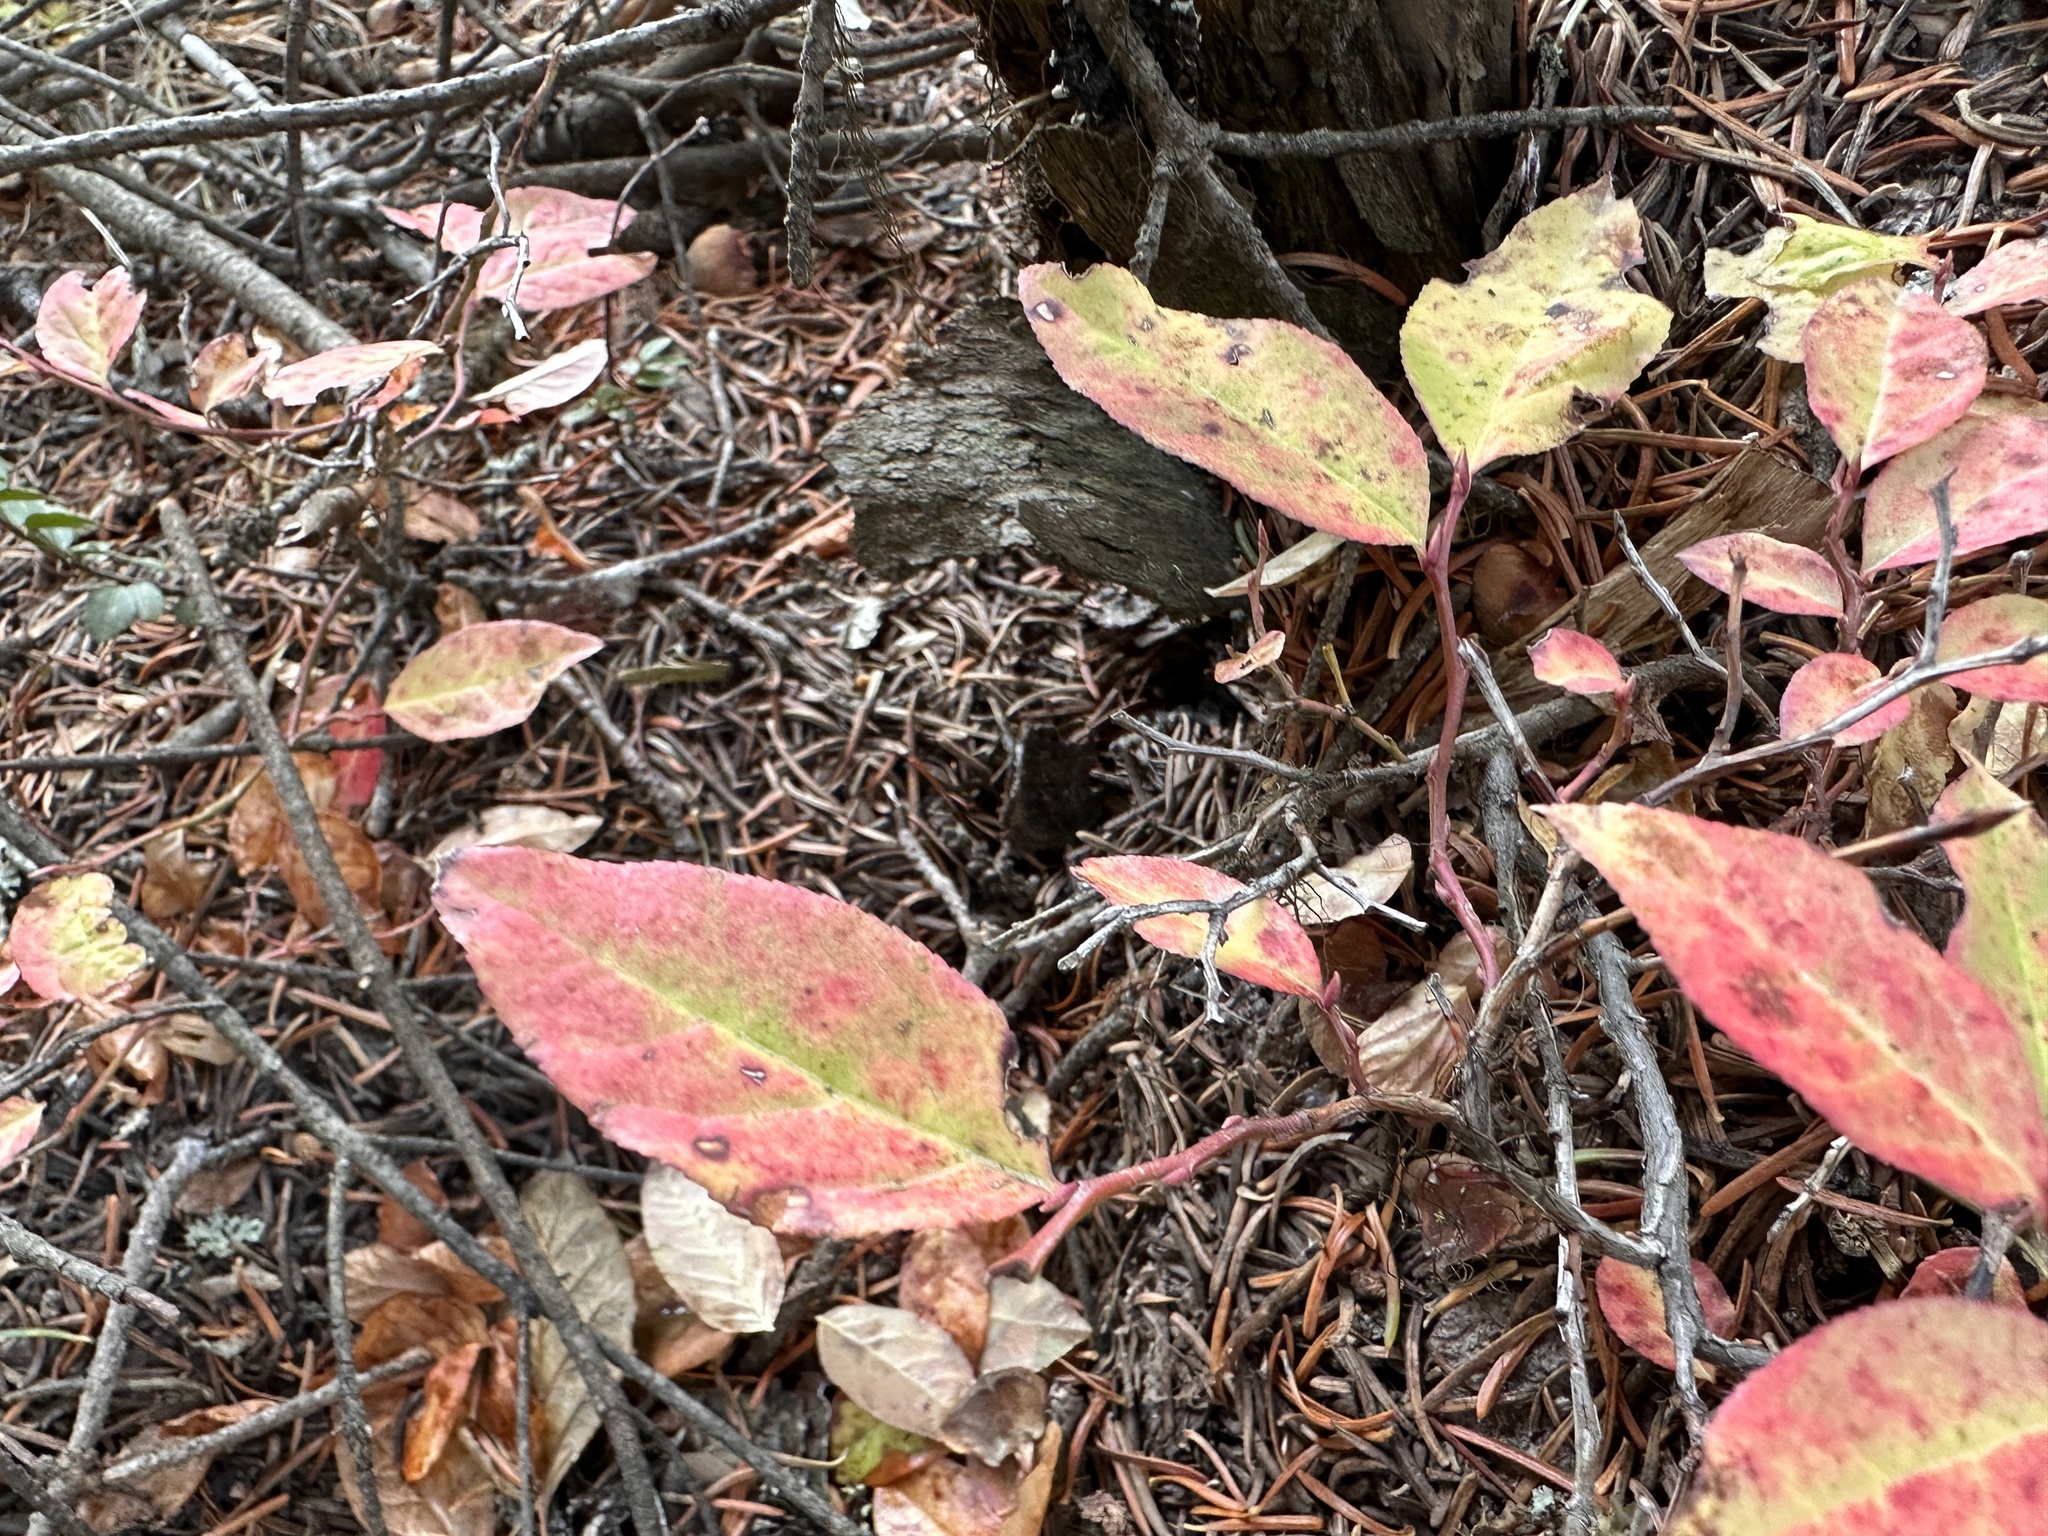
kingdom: Plantae
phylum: Tracheophyta
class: Magnoliopsida
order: Ericales
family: Ericaceae
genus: Vaccinium
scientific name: Vaccinium membranaceum
